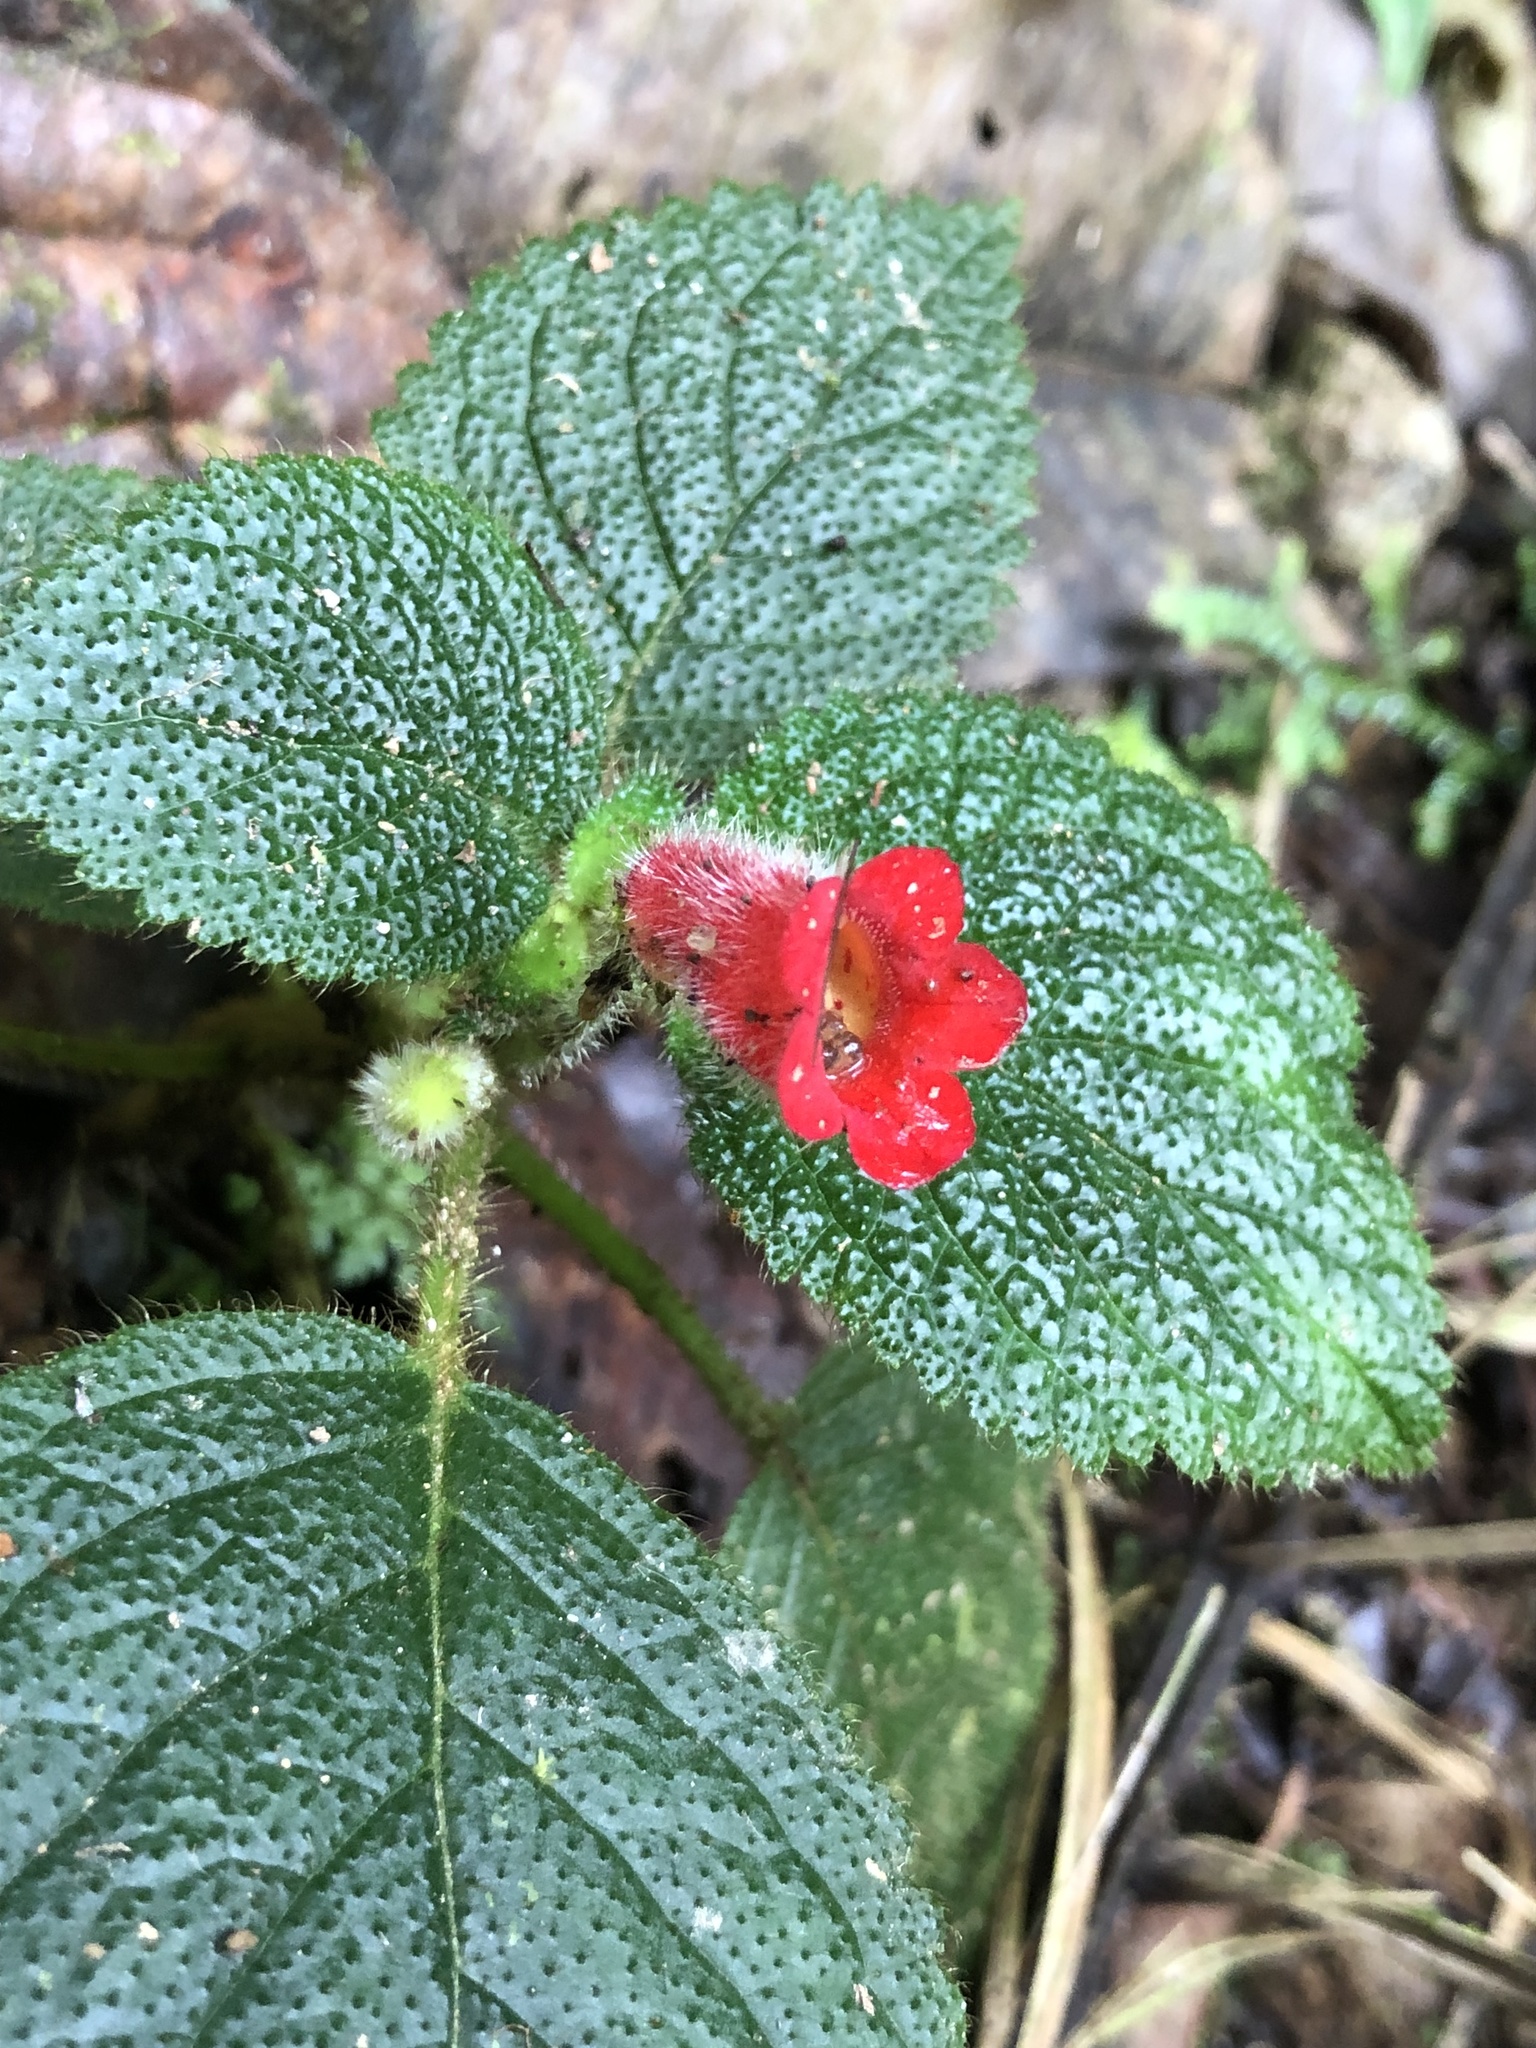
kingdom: Plantae
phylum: Tracheophyta
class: Magnoliopsida
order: Lamiales
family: Gesneriaceae
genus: Kohleria
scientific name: Kohleria villosa
